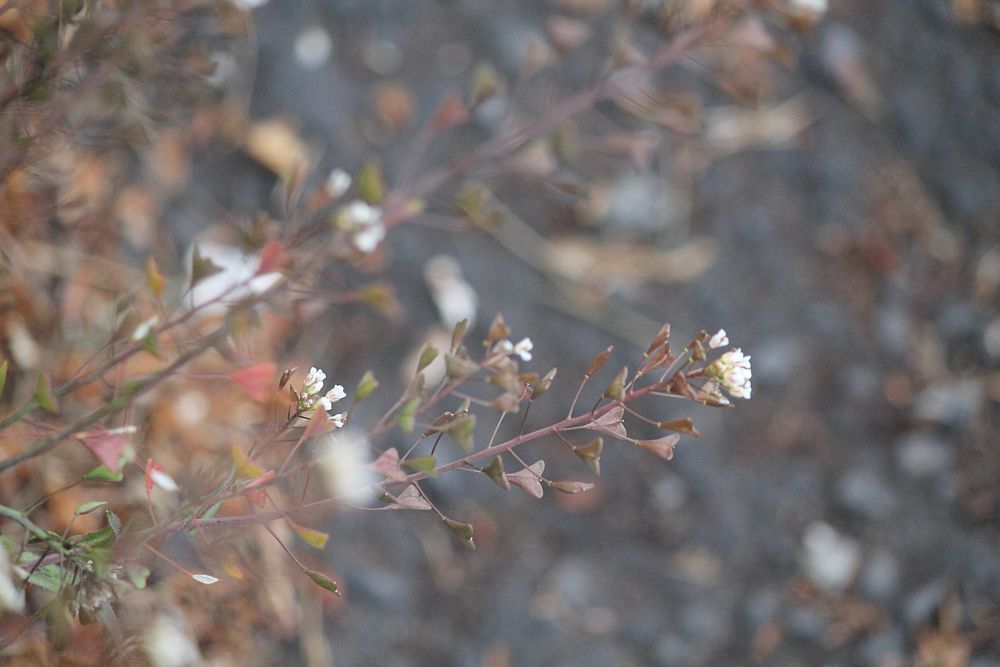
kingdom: Plantae
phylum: Tracheophyta
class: Magnoliopsida
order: Brassicales
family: Brassicaceae
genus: Capsella
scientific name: Capsella bursa-pastoris
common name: Shepherd's purse
